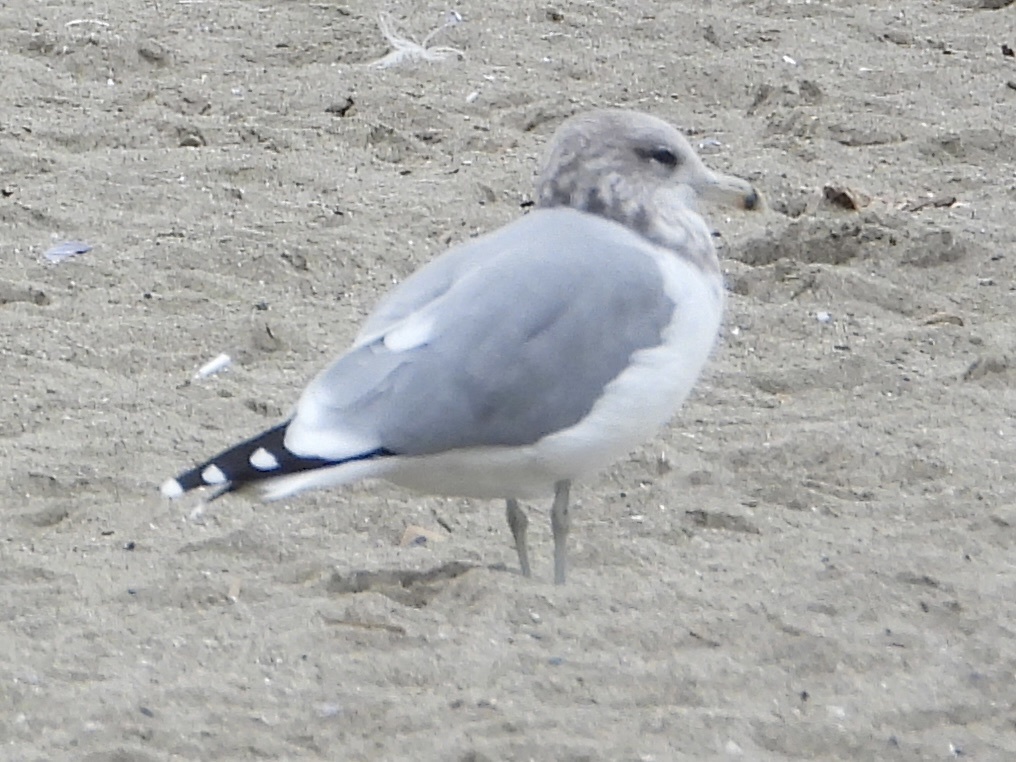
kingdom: Animalia
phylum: Chordata
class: Aves
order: Charadriiformes
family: Laridae
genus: Larus
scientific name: Larus californicus
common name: California gull
